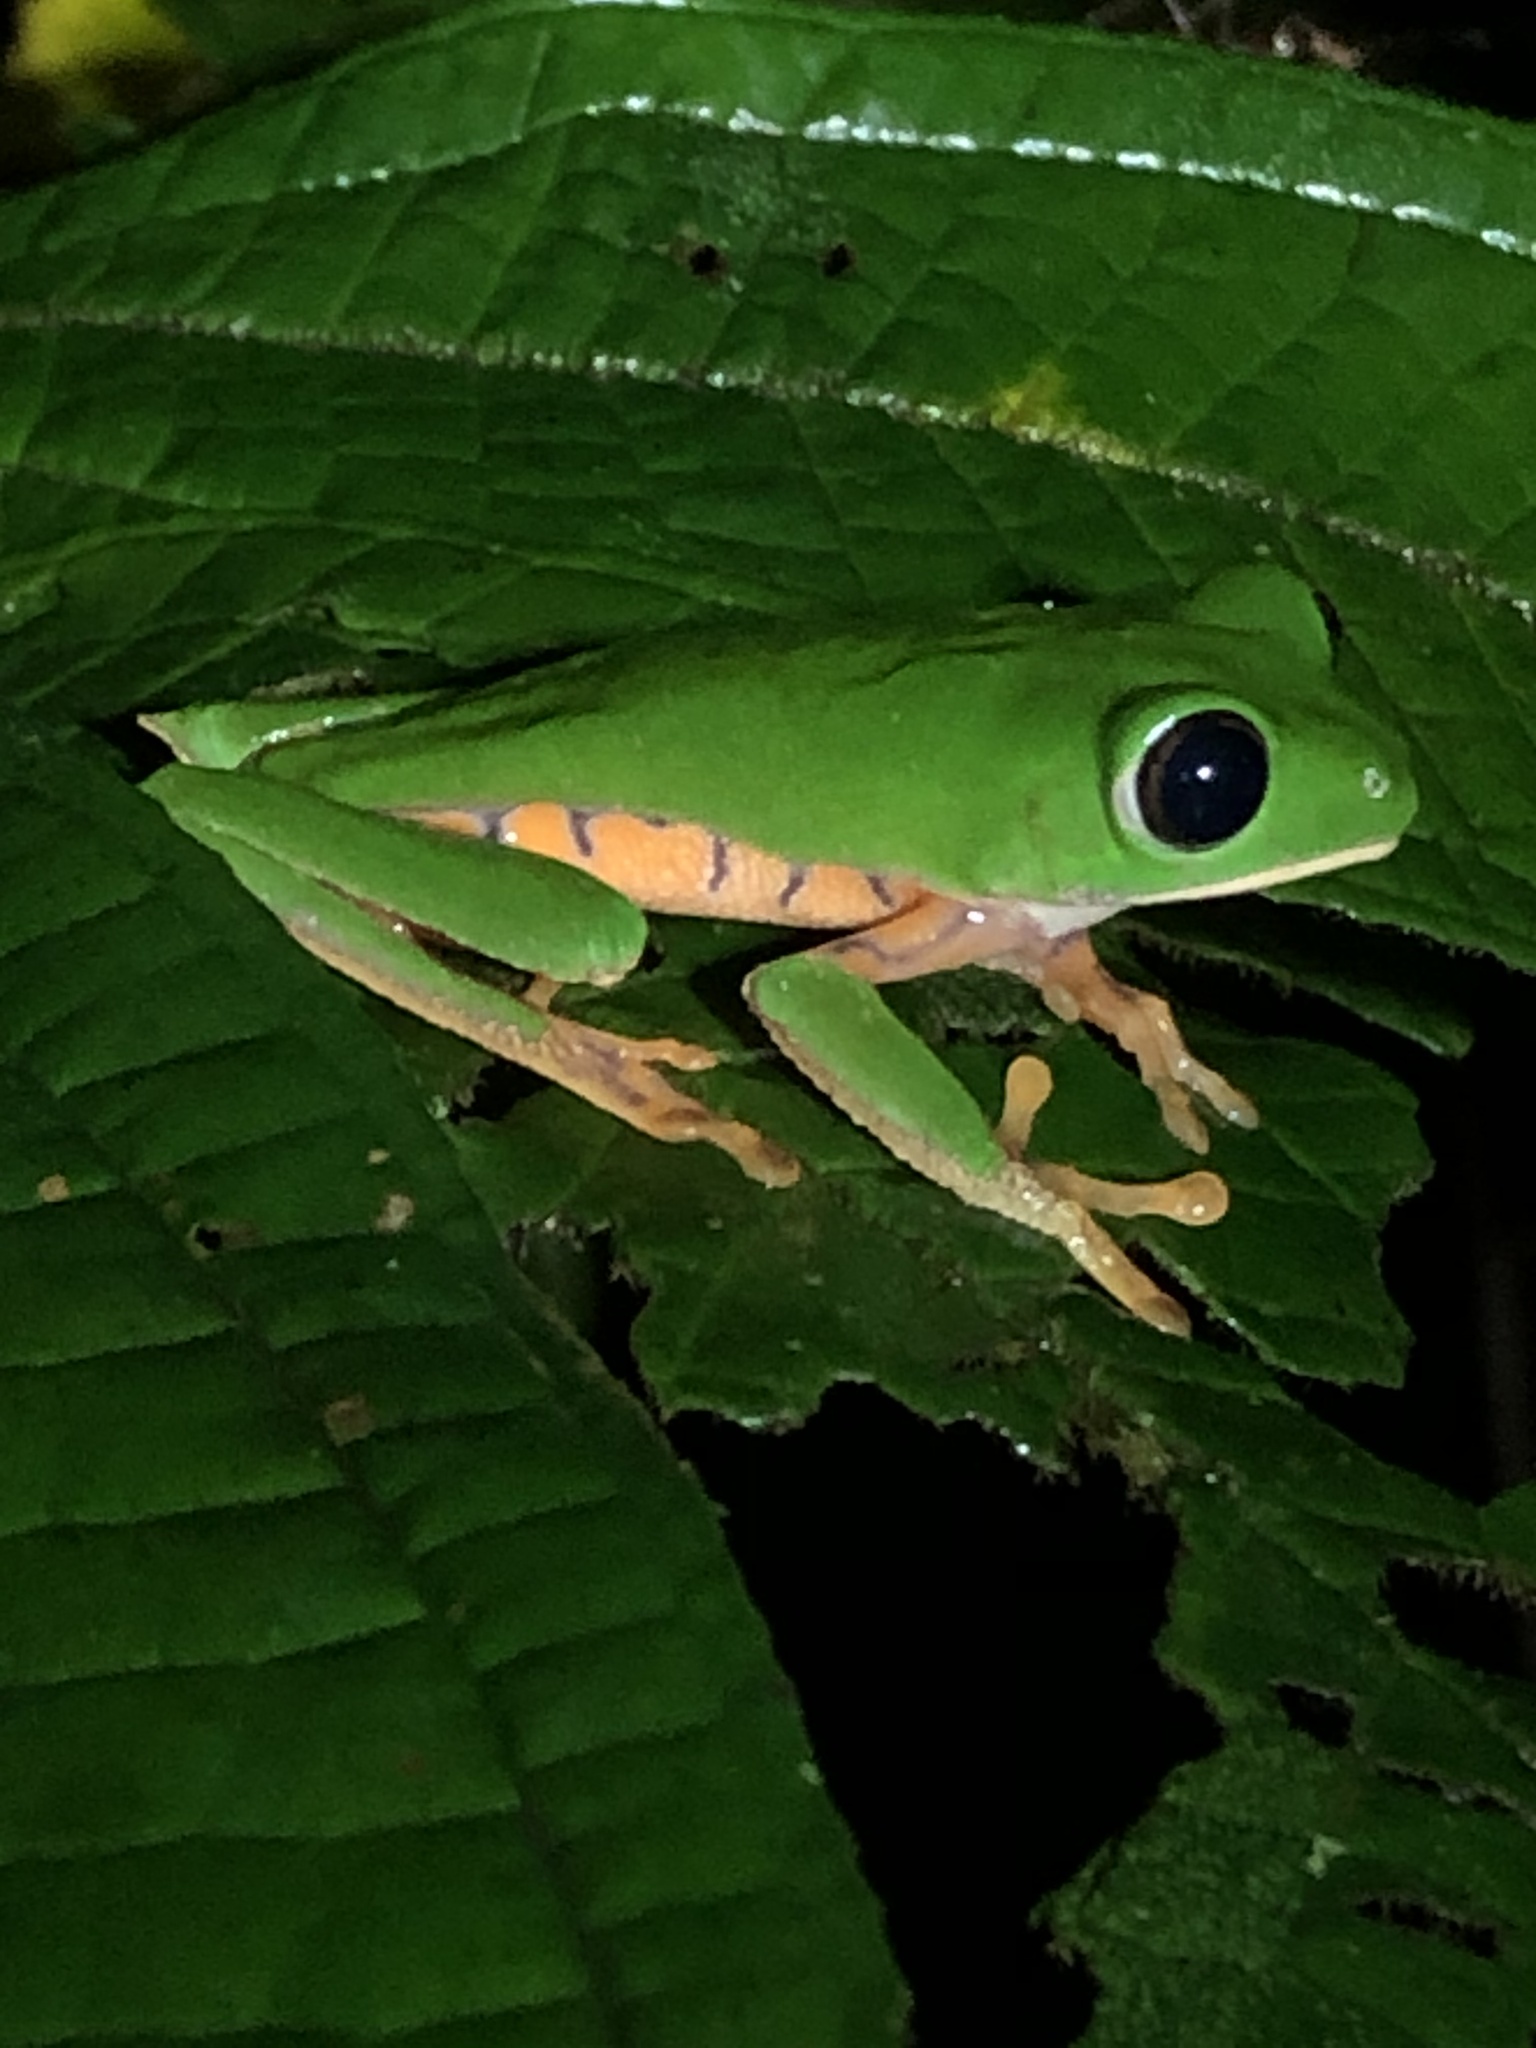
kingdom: Animalia
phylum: Chordata
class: Amphibia
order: Anura
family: Phyllomedusidae
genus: Callimedusa
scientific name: Callimedusa tomopterna
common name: Tiger-striped leaf frog
